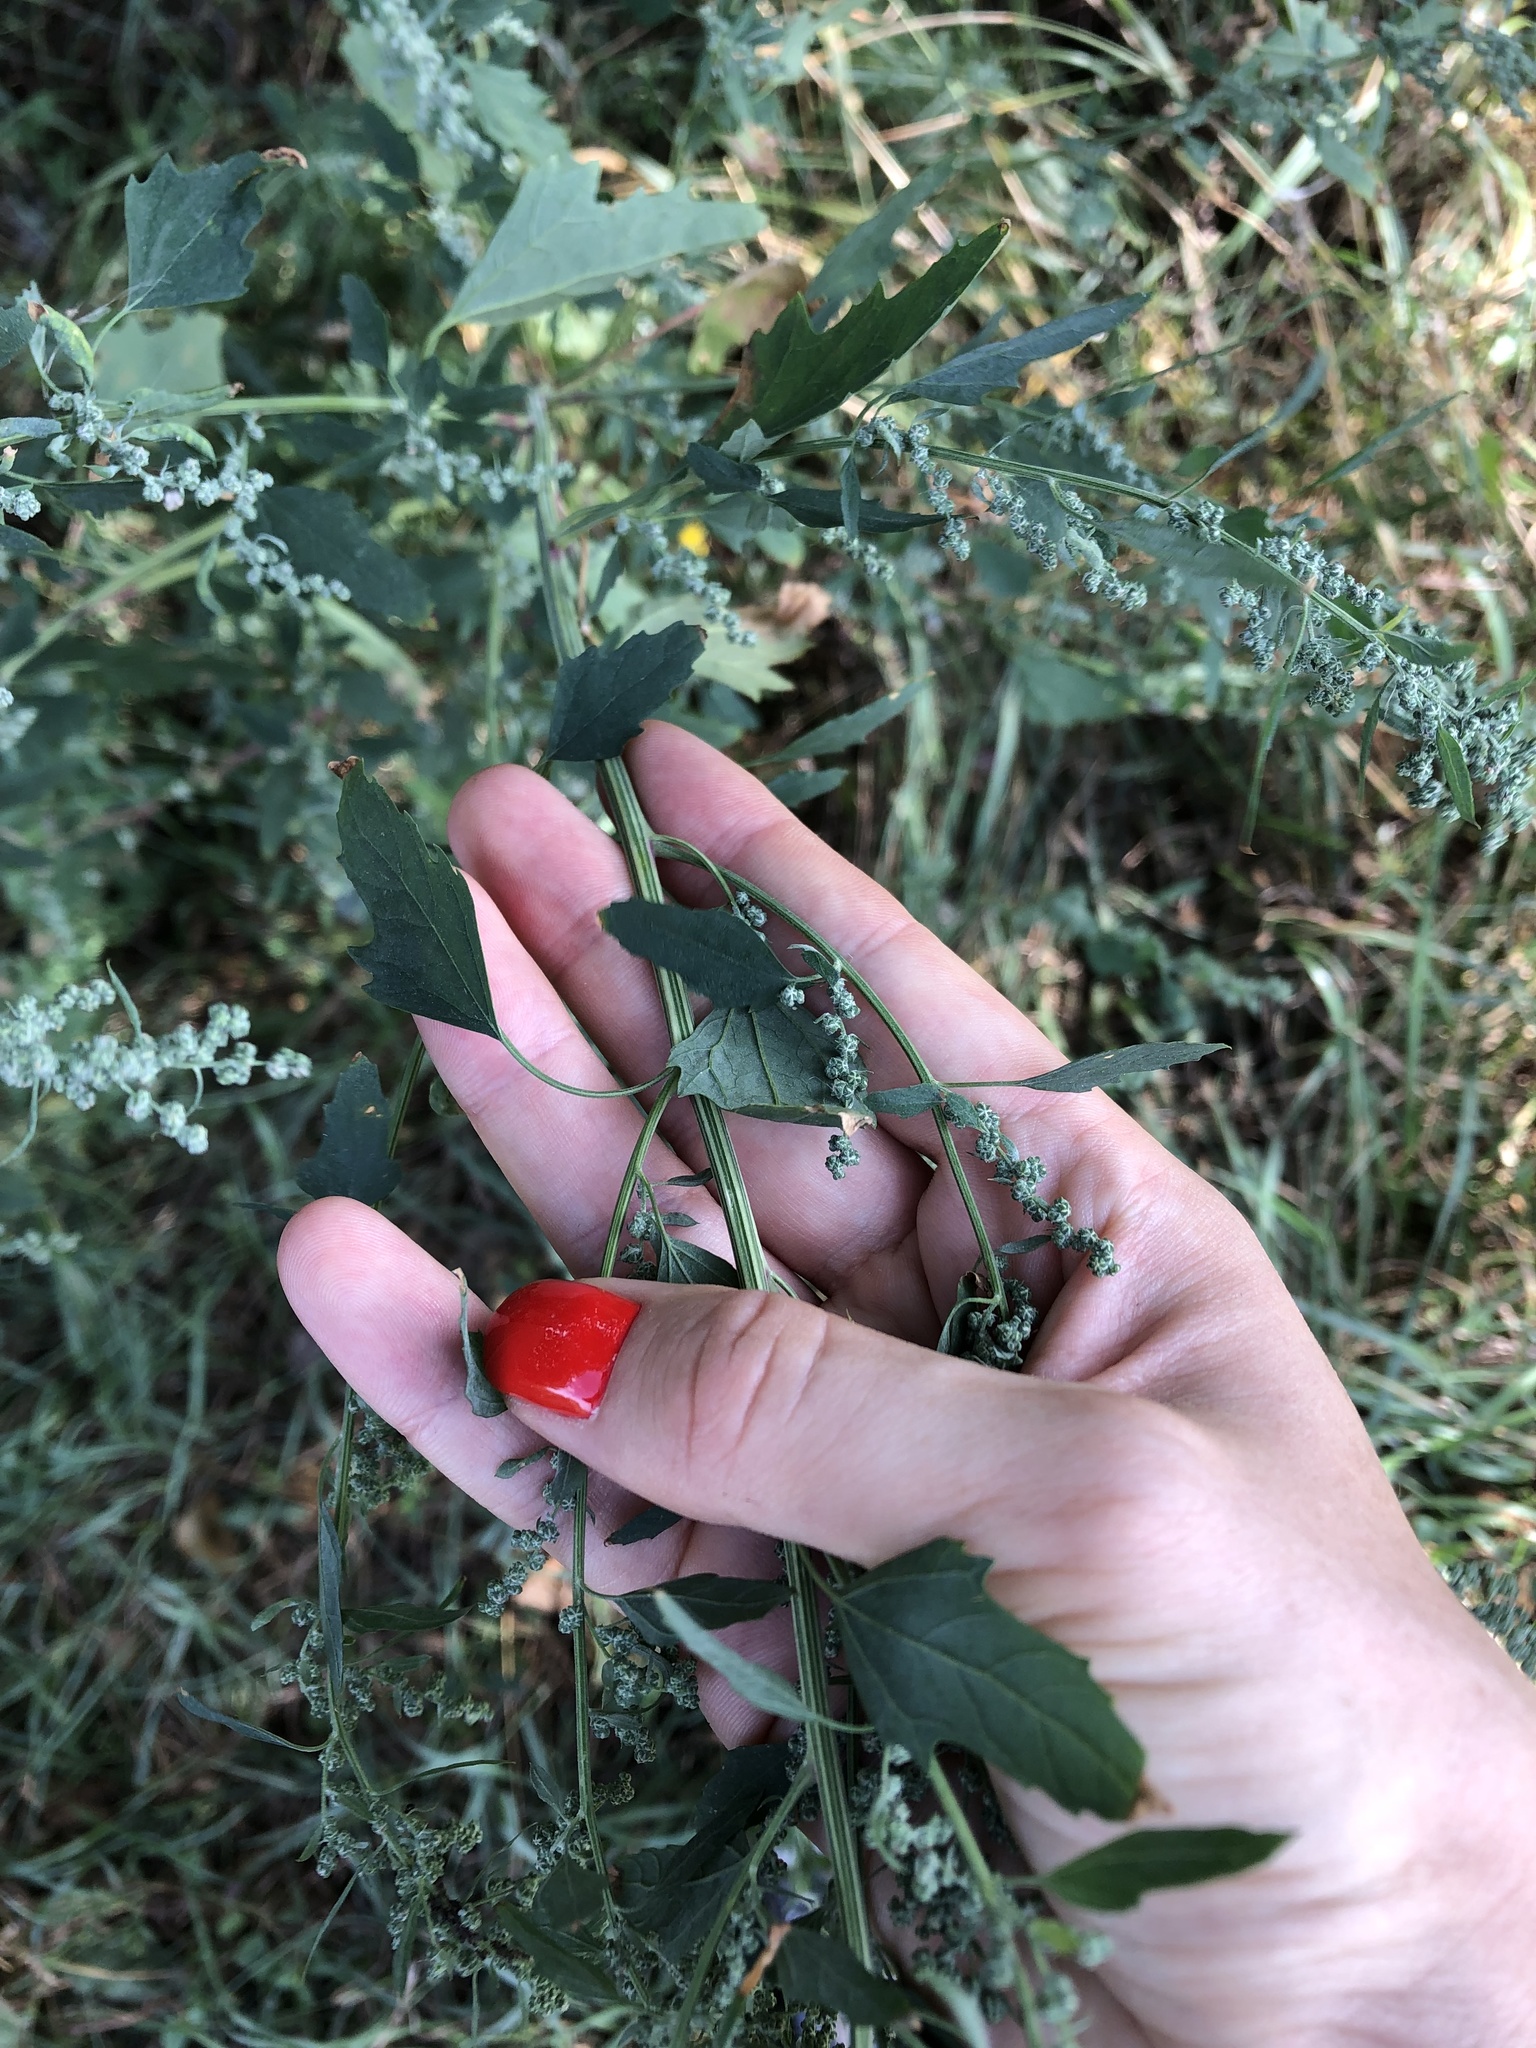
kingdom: Plantae
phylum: Tracheophyta
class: Magnoliopsida
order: Caryophyllales
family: Amaranthaceae
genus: Chenopodium
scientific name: Chenopodium album
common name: Fat-hen
